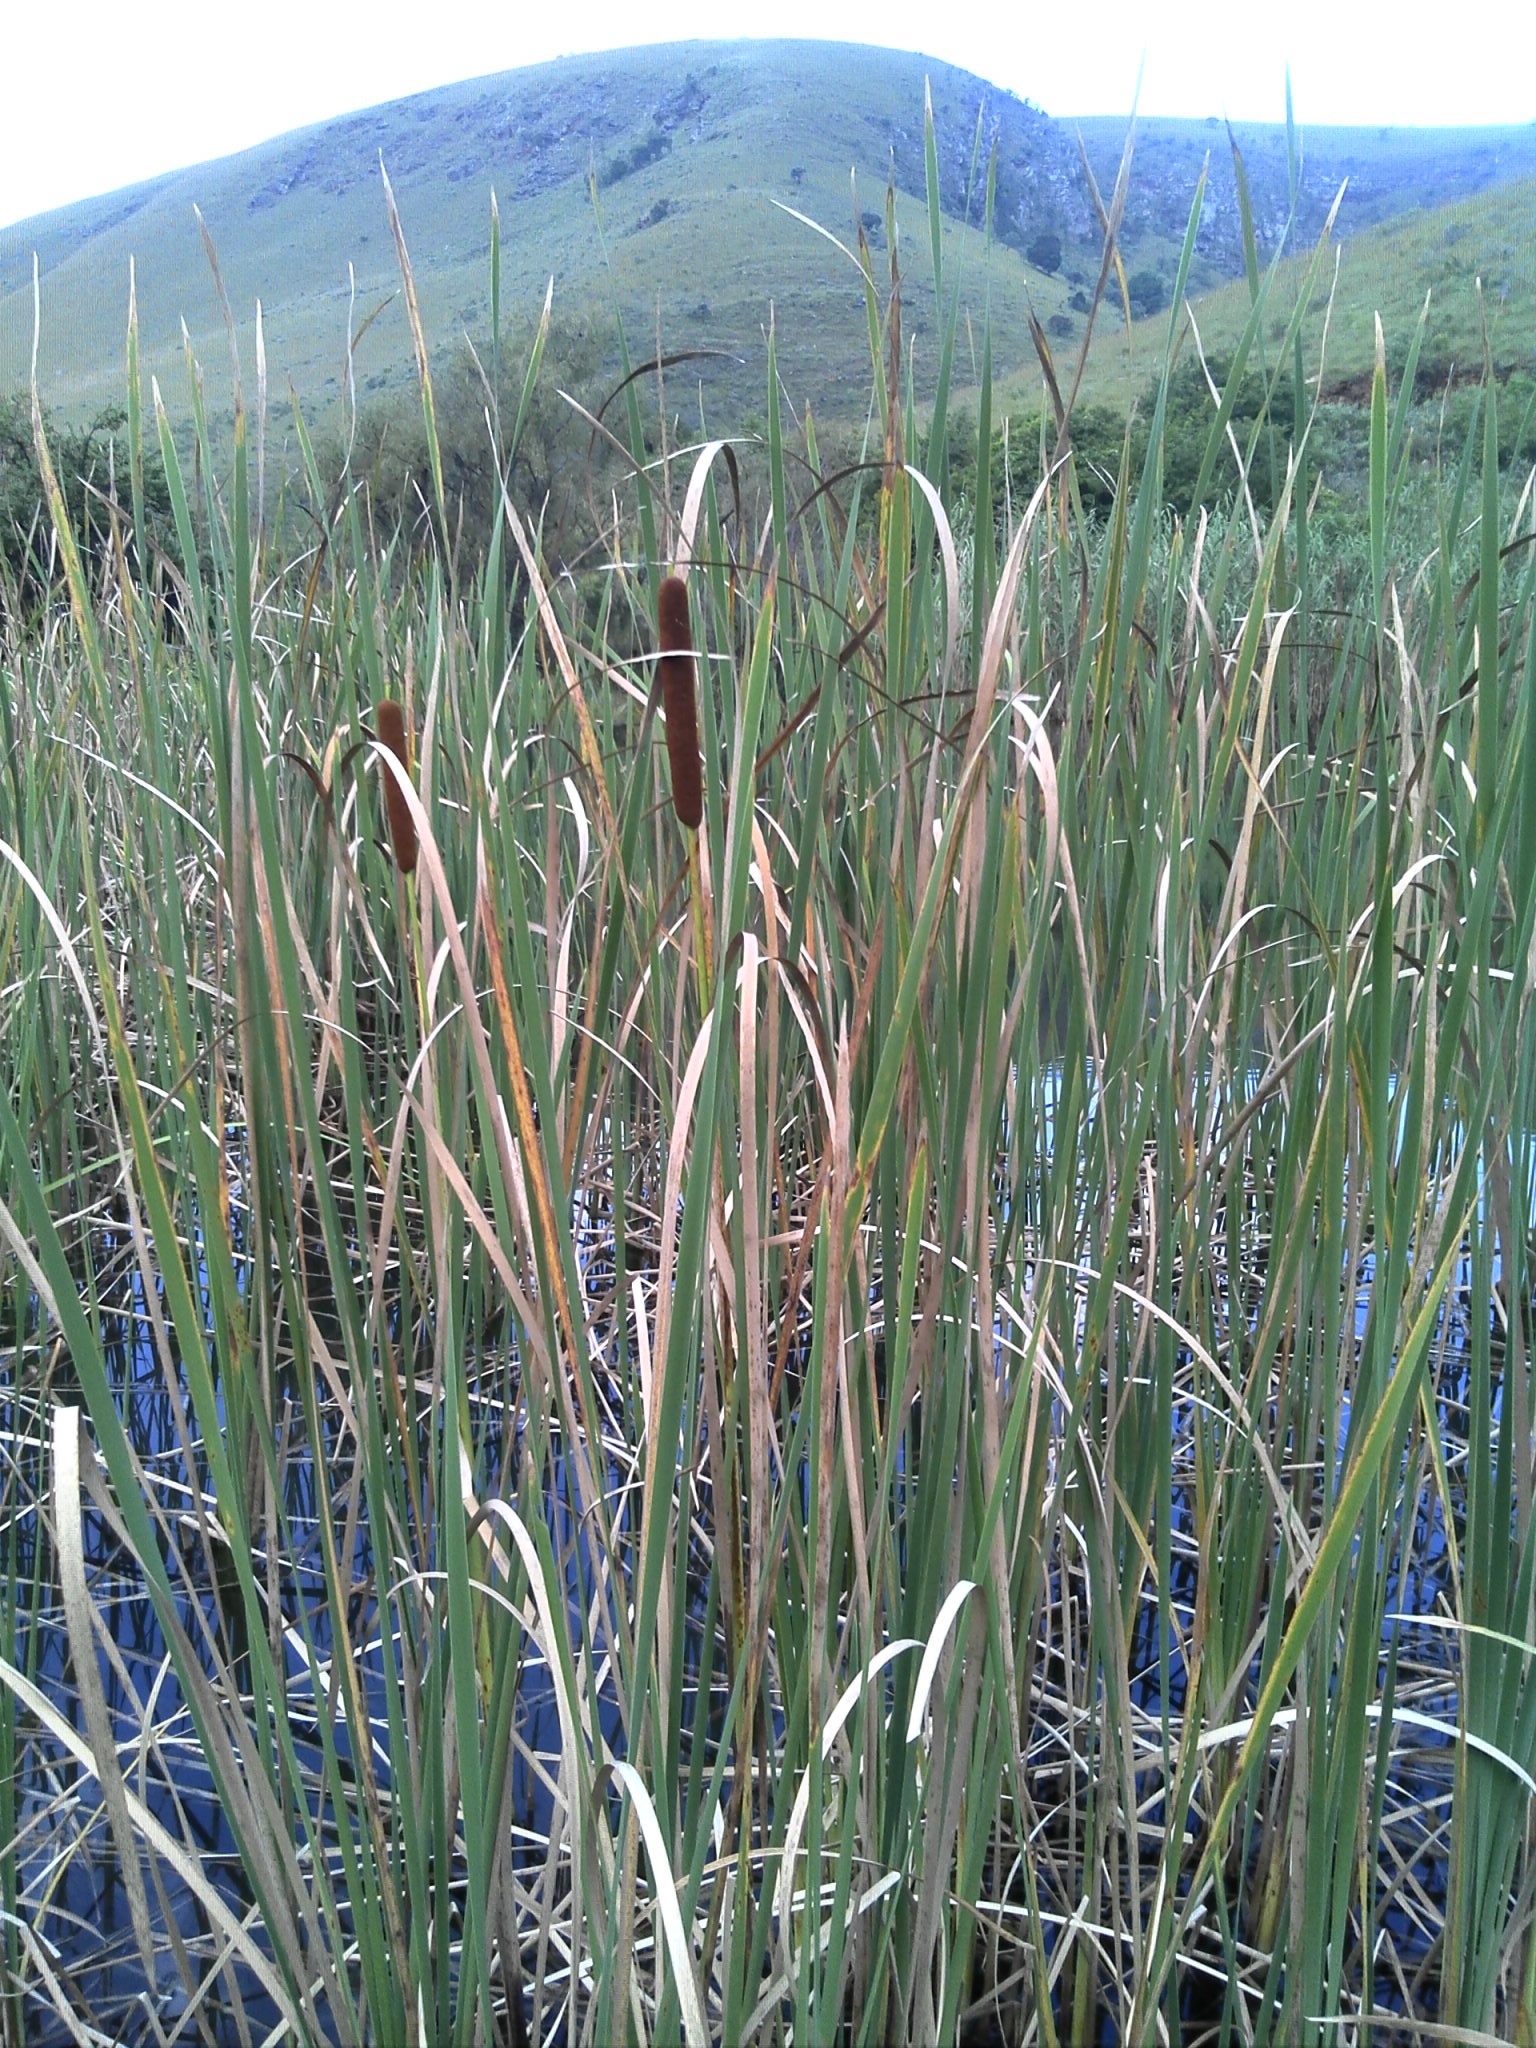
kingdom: Plantae
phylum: Tracheophyta
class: Liliopsida
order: Poales
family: Typhaceae
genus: Typha
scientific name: Typha capensis
